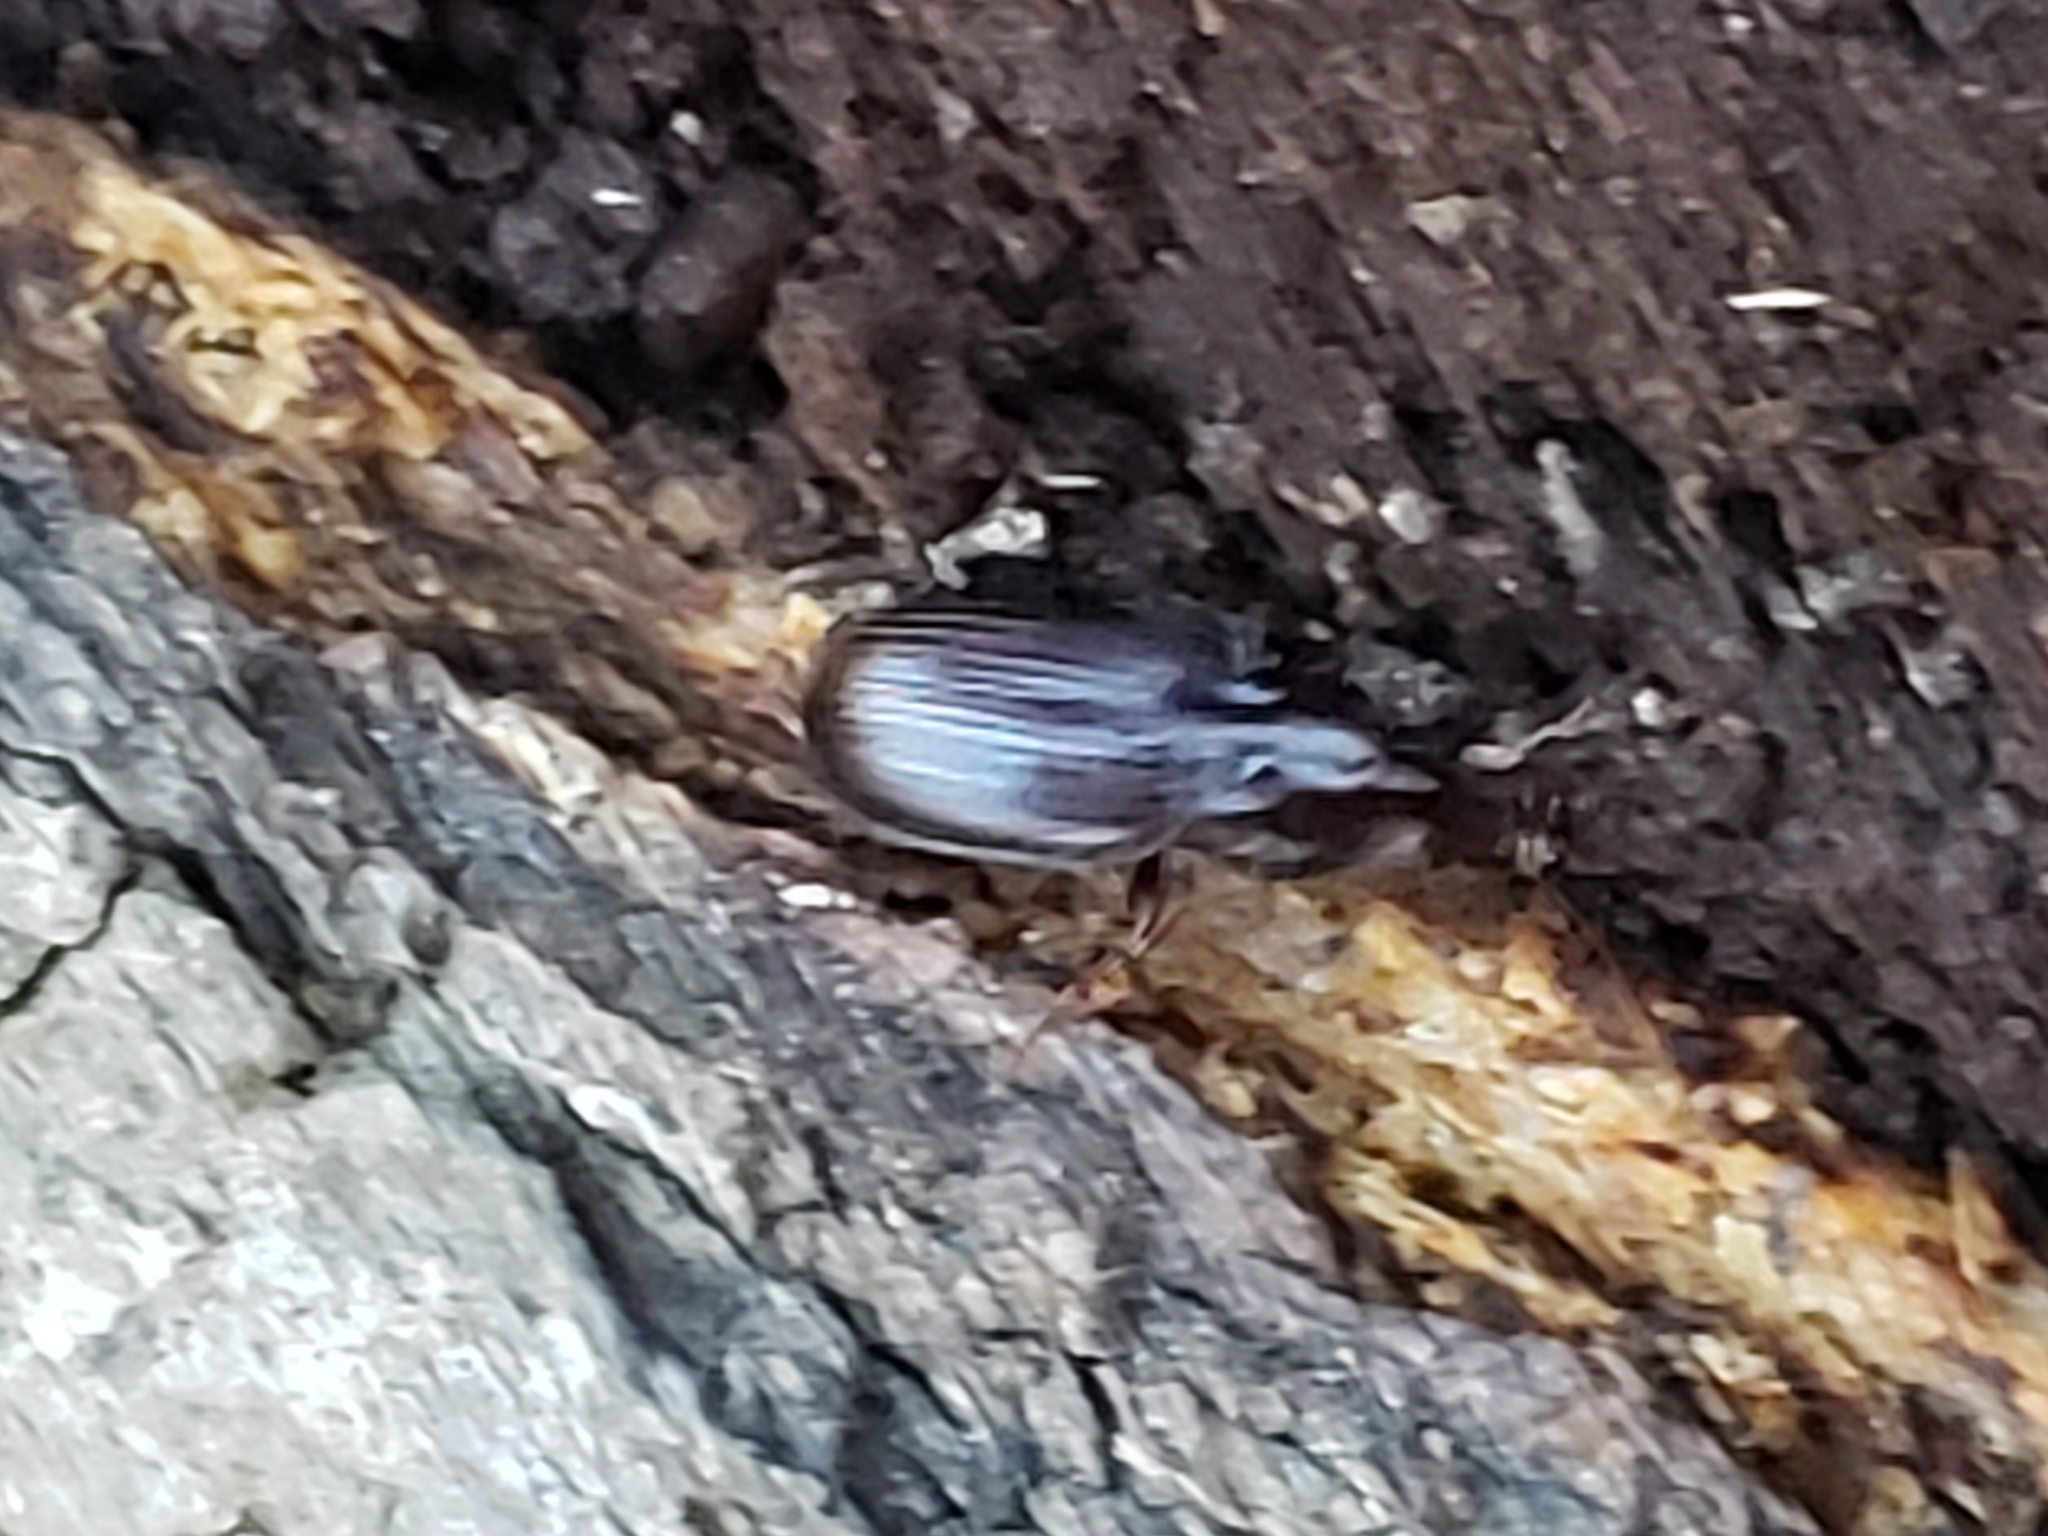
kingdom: Animalia
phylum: Arthropoda
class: Insecta
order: Coleoptera
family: Carabidae
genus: Gastrellarius
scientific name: Gastrellarius honestus
